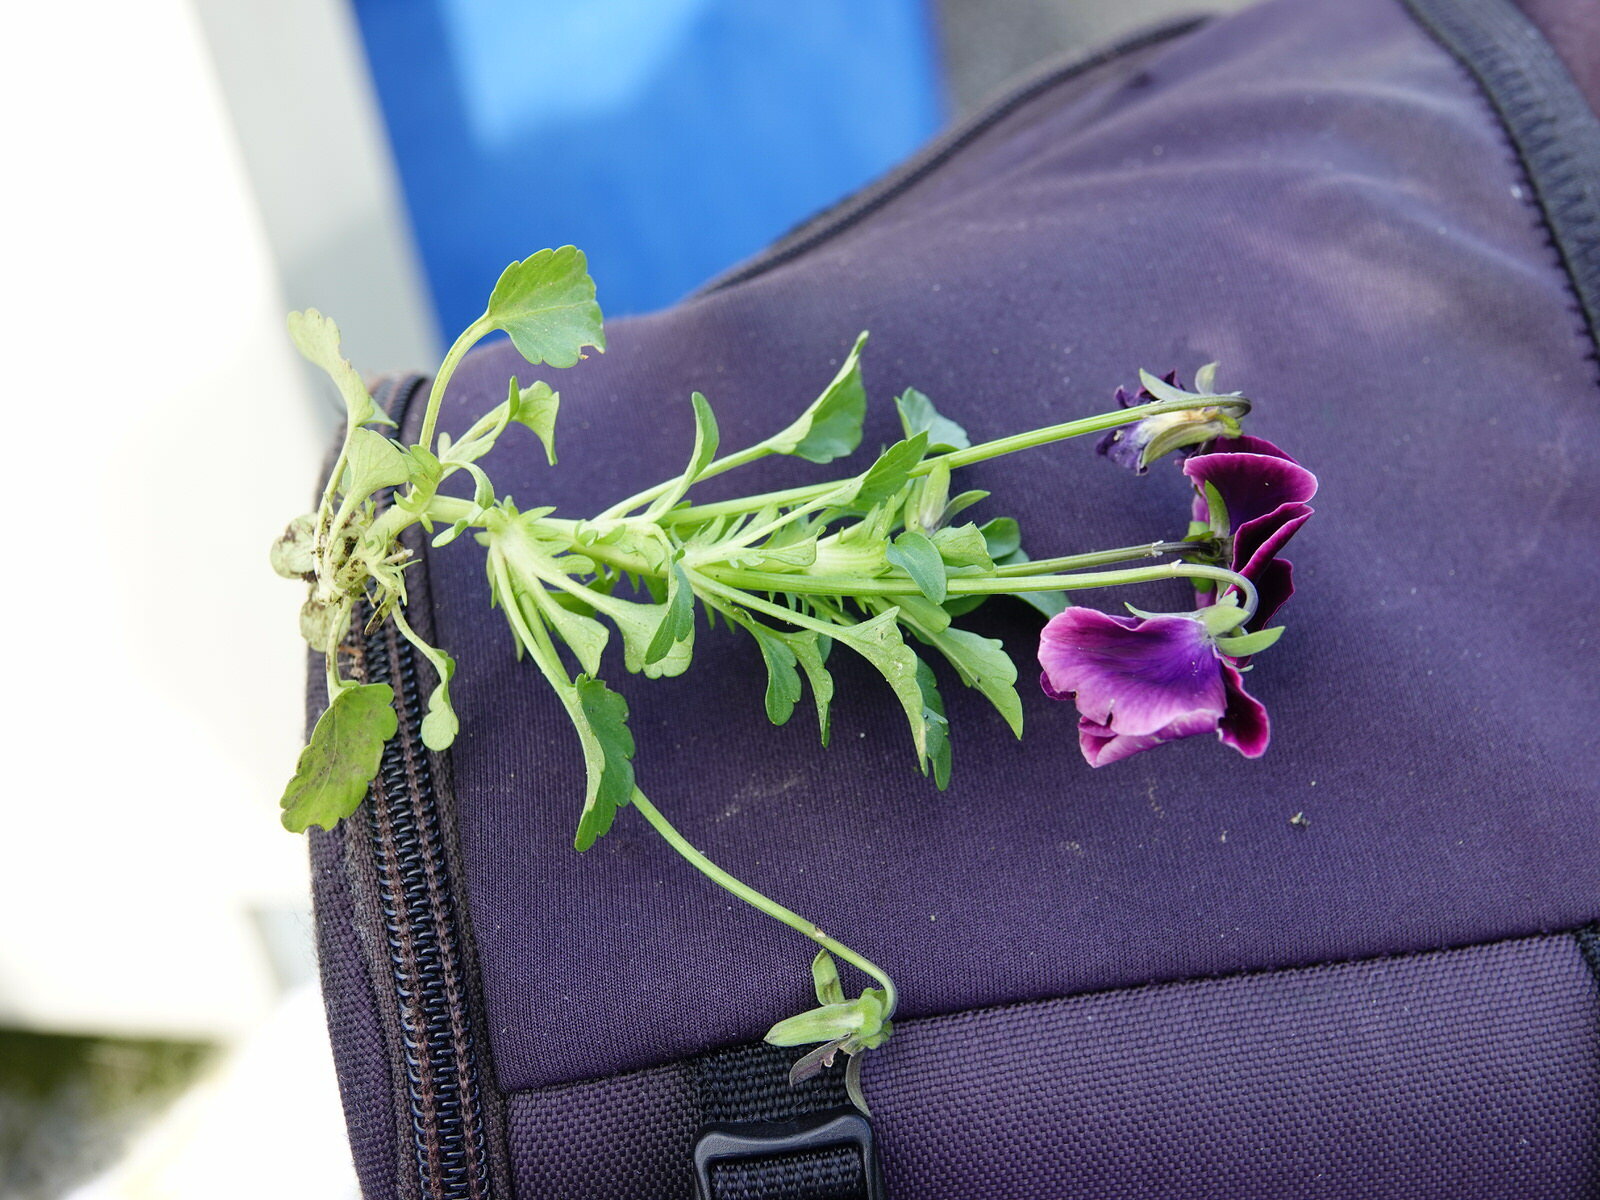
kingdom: Plantae
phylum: Tracheophyta
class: Magnoliopsida
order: Malpighiales
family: Violaceae
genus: Viola
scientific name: Viola wittrockiana
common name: Garden pansy
